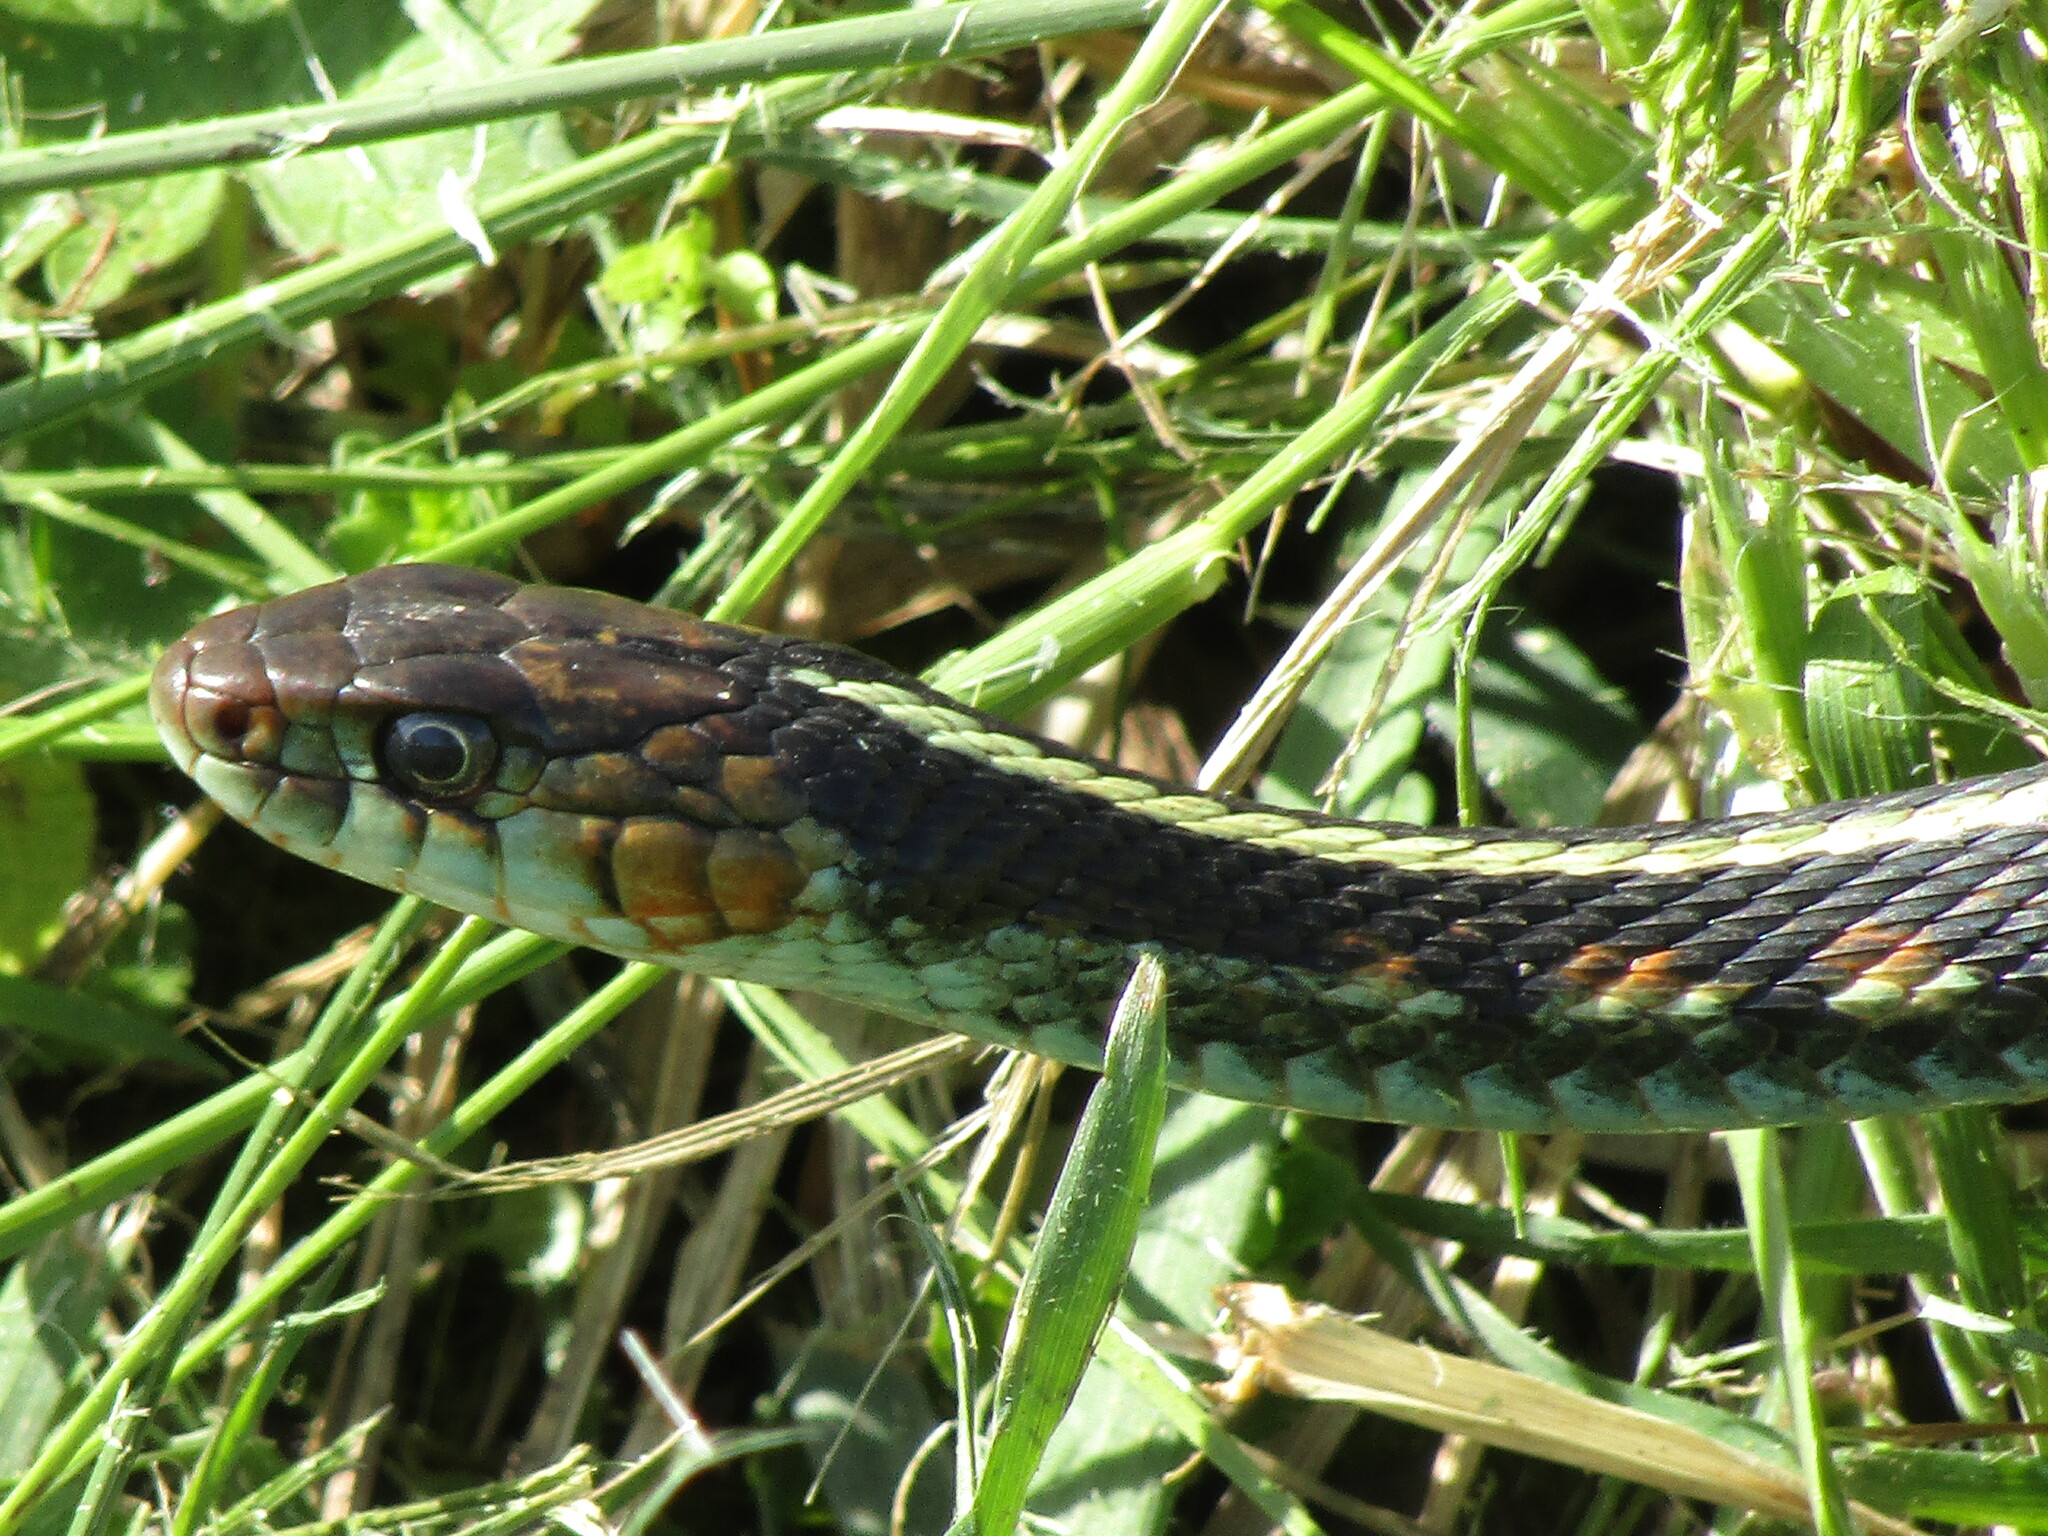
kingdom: Animalia
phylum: Chordata
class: Squamata
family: Colubridae
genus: Thamnophis
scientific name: Thamnophis sirtalis
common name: Common garter snake
